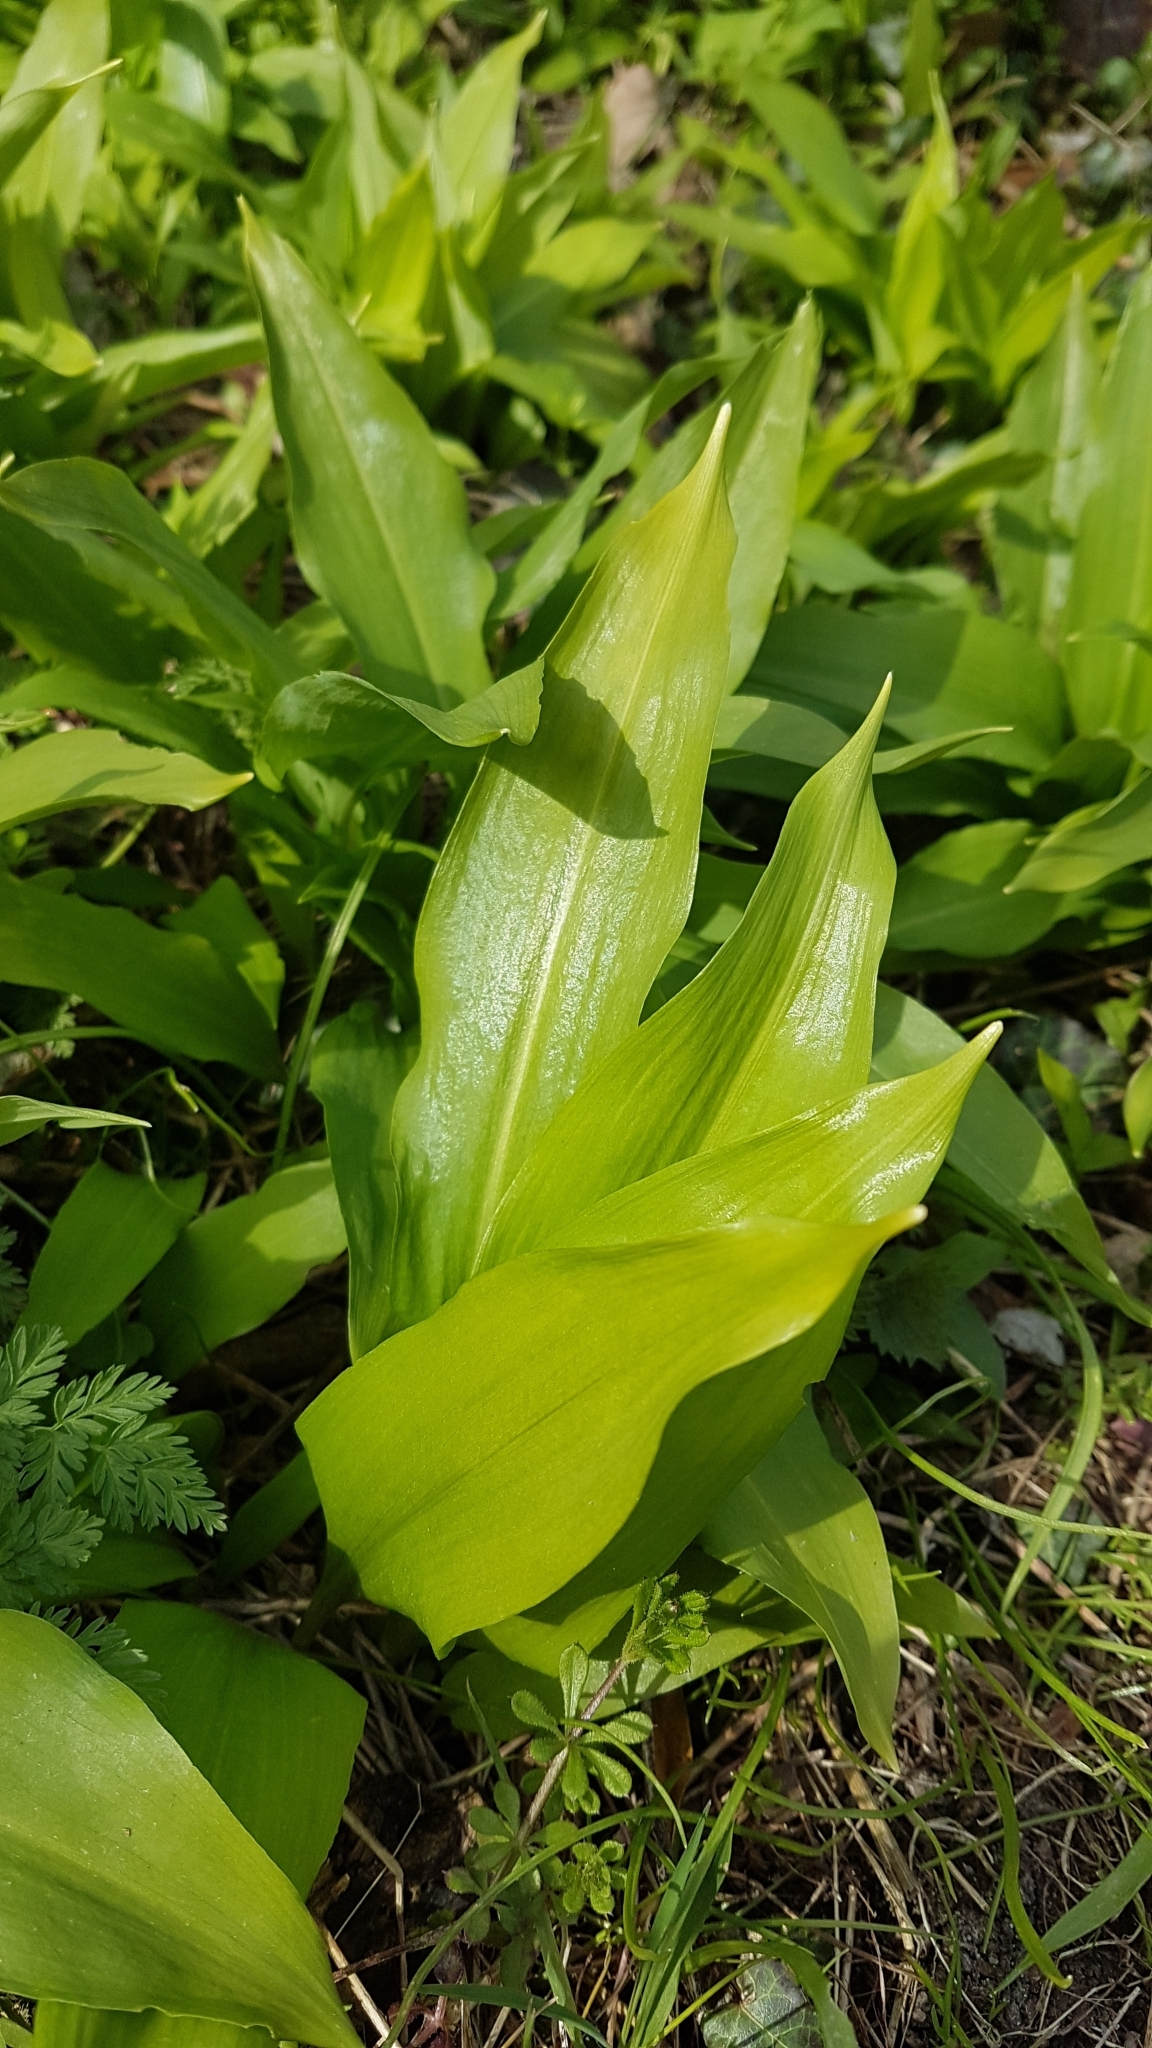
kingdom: Plantae
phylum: Tracheophyta
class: Liliopsida
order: Asparagales
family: Amaryllidaceae
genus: Allium
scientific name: Allium ursinum
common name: Ramsons
